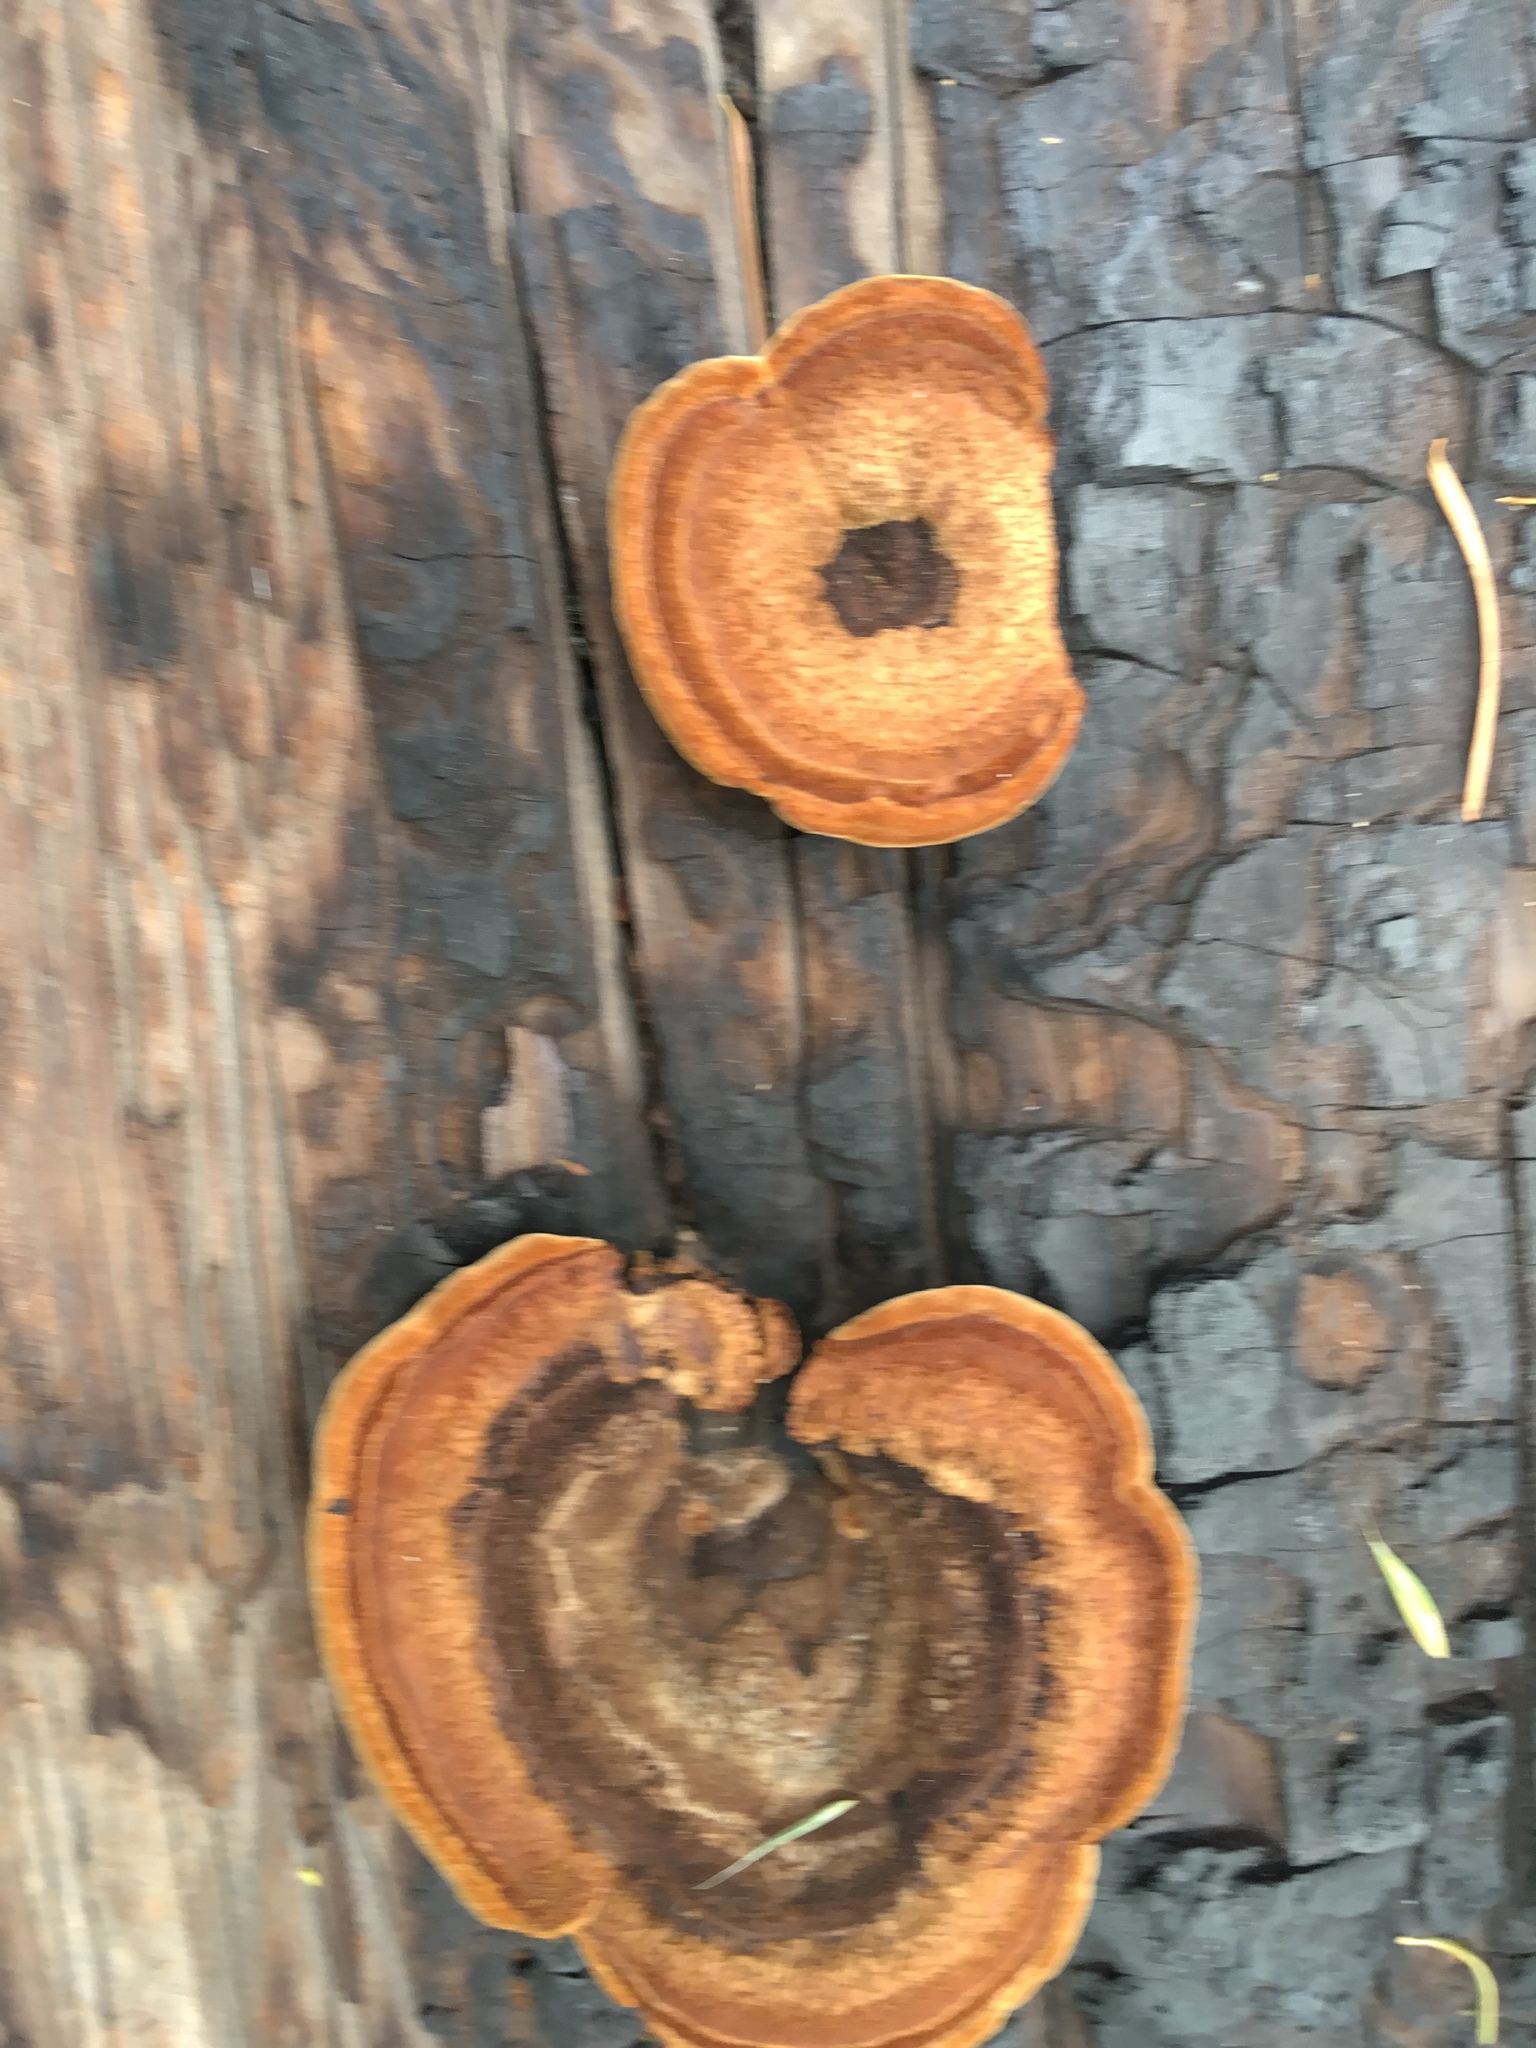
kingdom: Fungi
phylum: Basidiomycota
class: Agaricomycetes
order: Gloeophyllales
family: Gloeophyllaceae
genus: Gloeophyllum
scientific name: Gloeophyllum sepiarium
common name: Conifer mazegill
